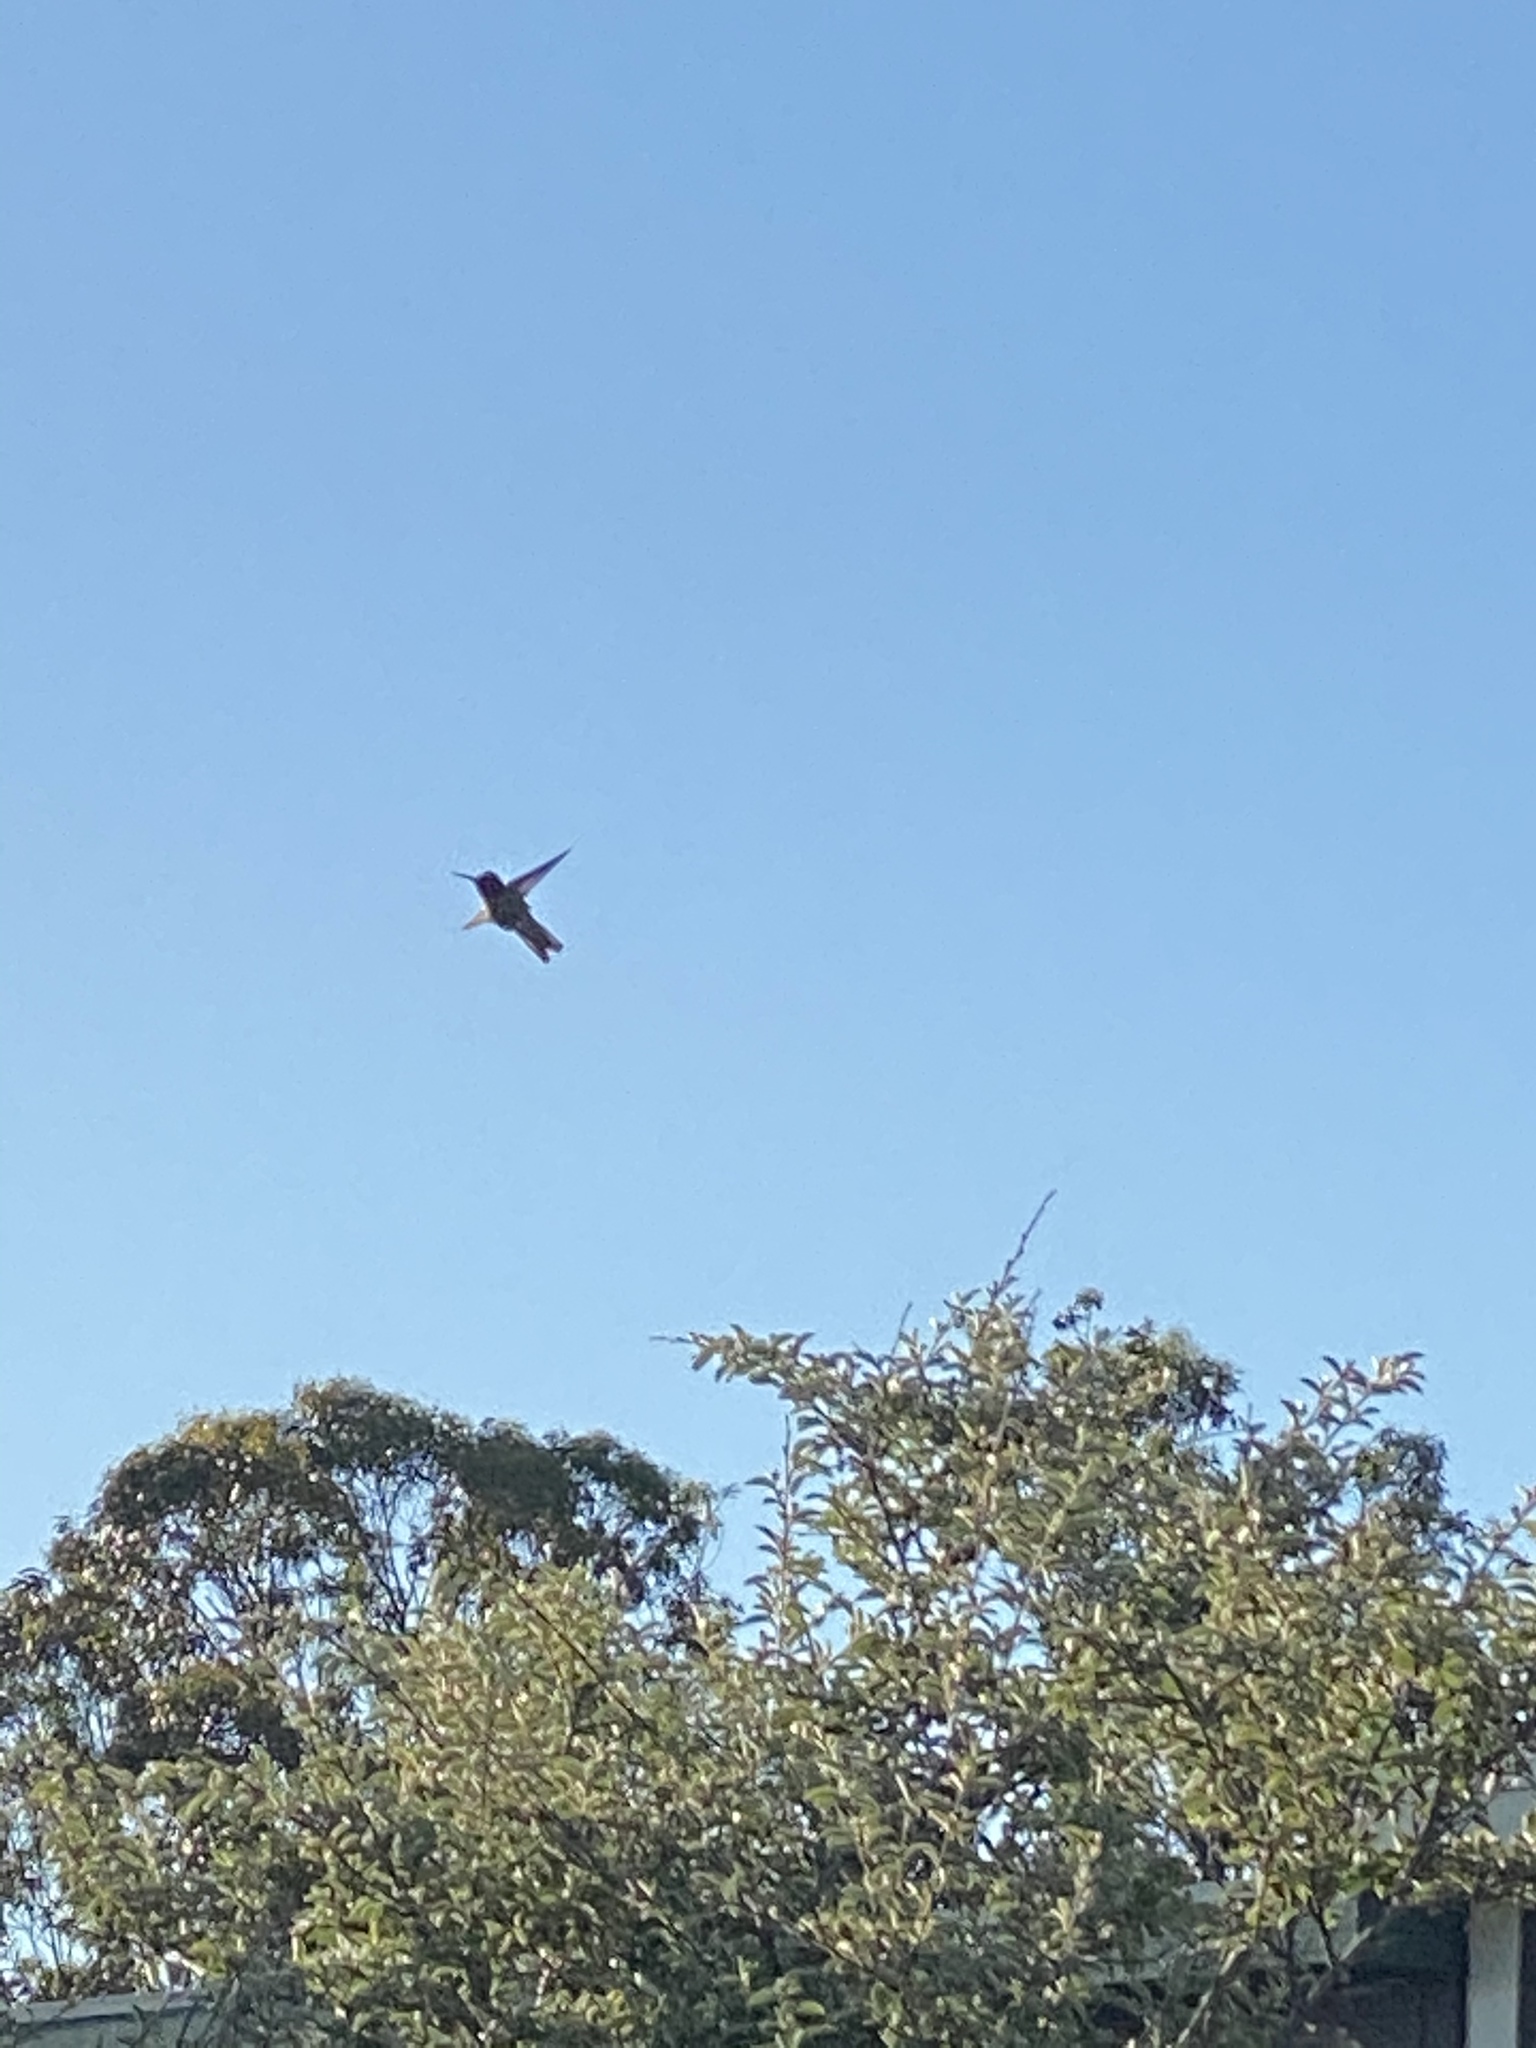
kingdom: Animalia
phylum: Chordata
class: Aves
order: Apodiformes
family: Trochilidae
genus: Calypte
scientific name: Calypte anna
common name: Anna's hummingbird
